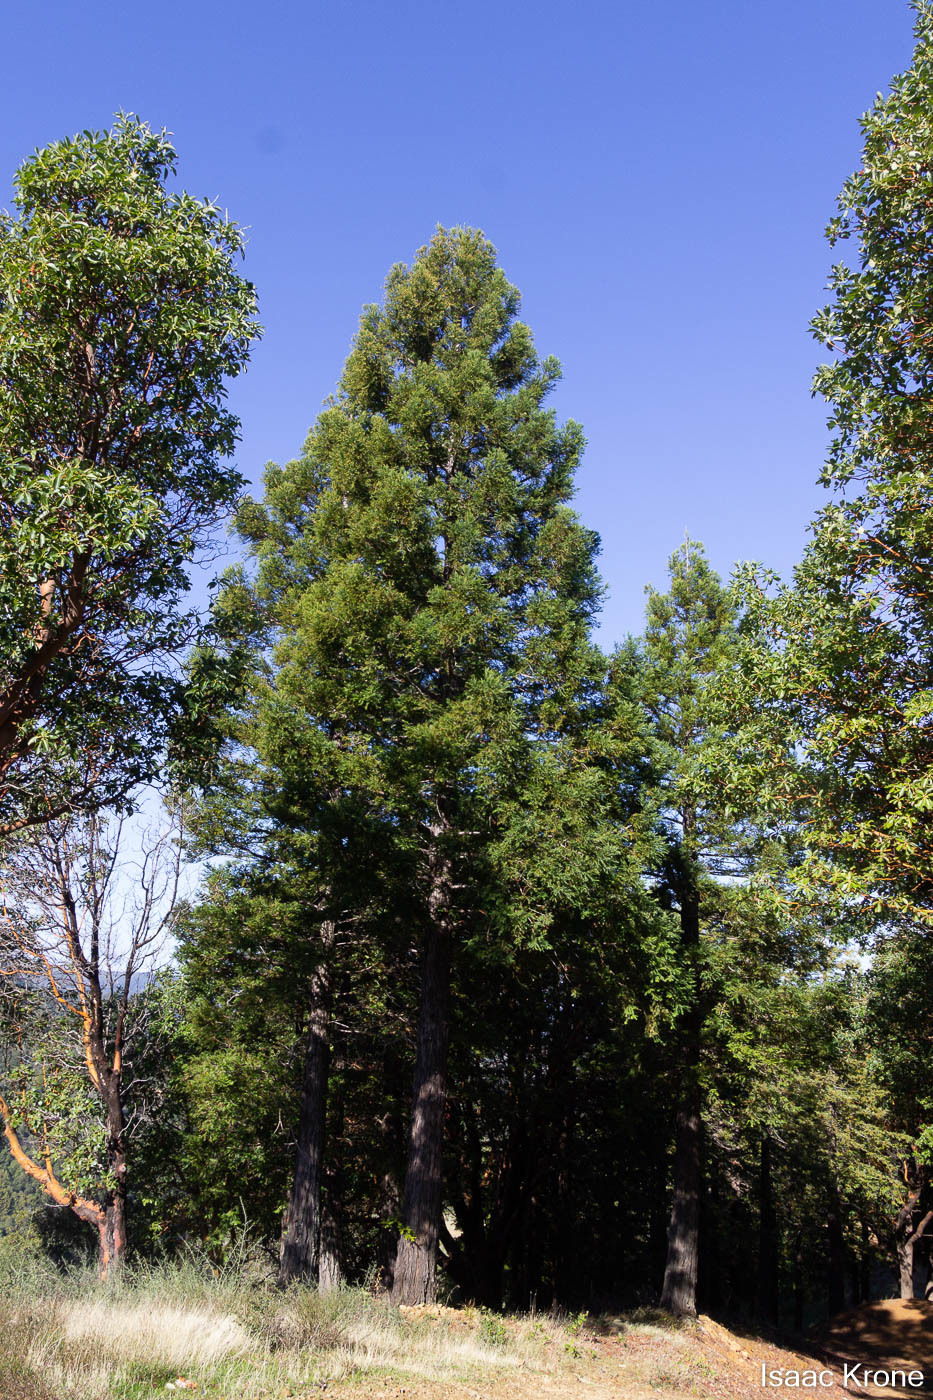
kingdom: Plantae
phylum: Tracheophyta
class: Pinopsida
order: Pinales
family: Cupressaceae
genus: Sequoia
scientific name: Sequoia sempervirens
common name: Coast redwood
